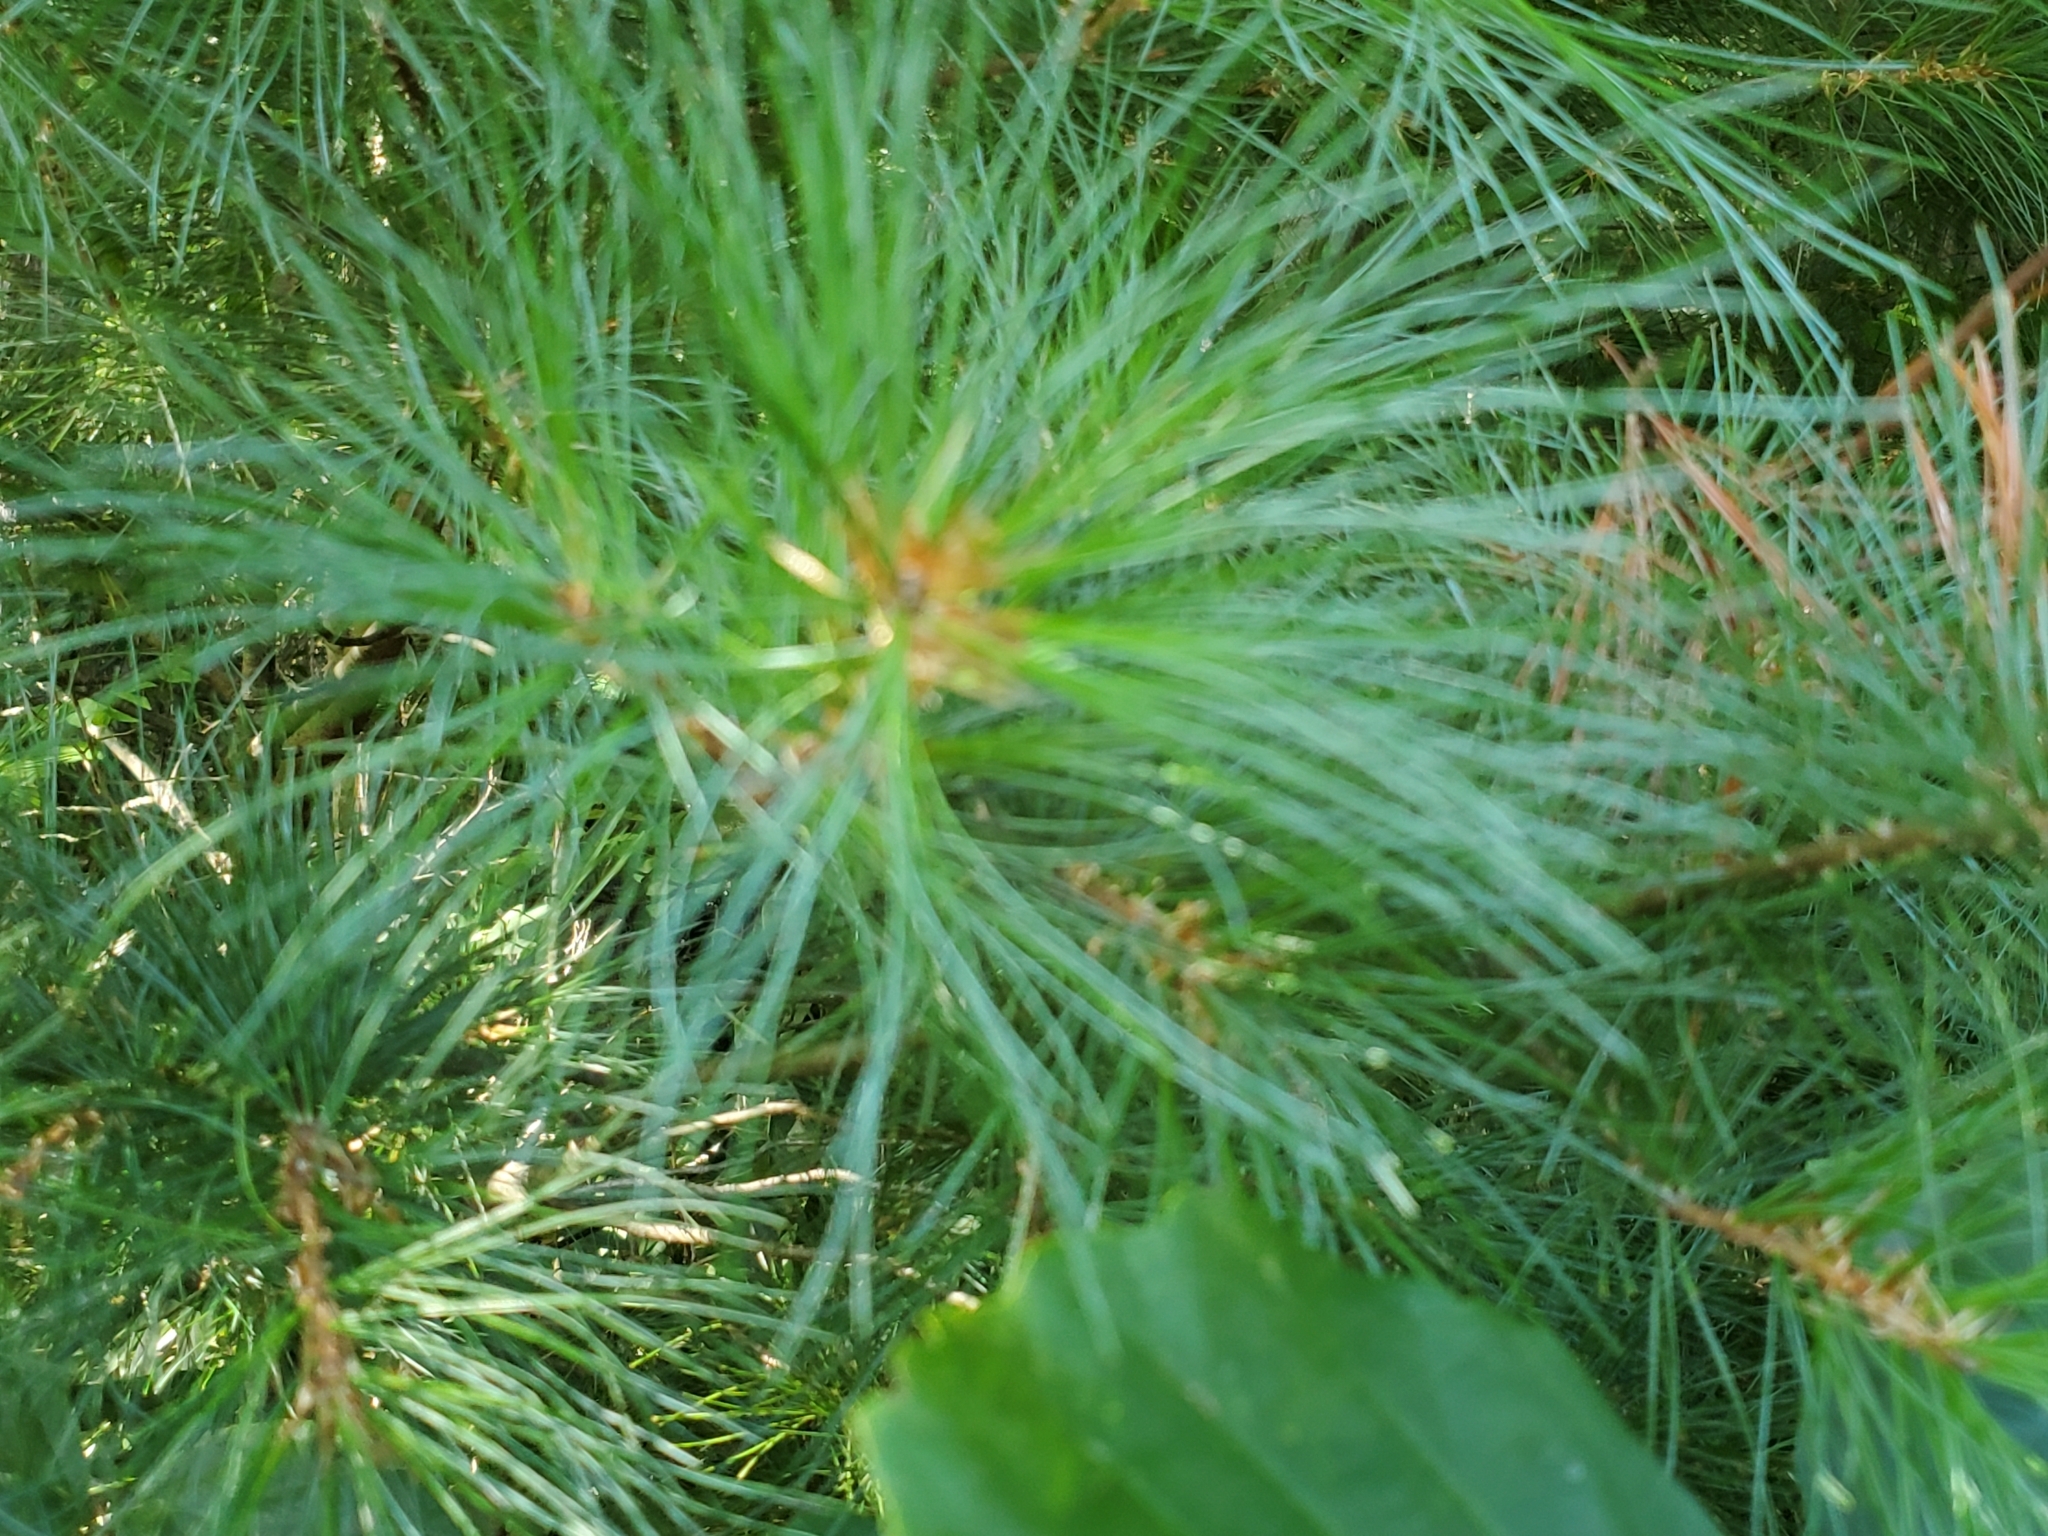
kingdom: Plantae
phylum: Tracheophyta
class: Pinopsida
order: Pinales
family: Pinaceae
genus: Pinus
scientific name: Pinus strobus
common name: Weymouth pine
